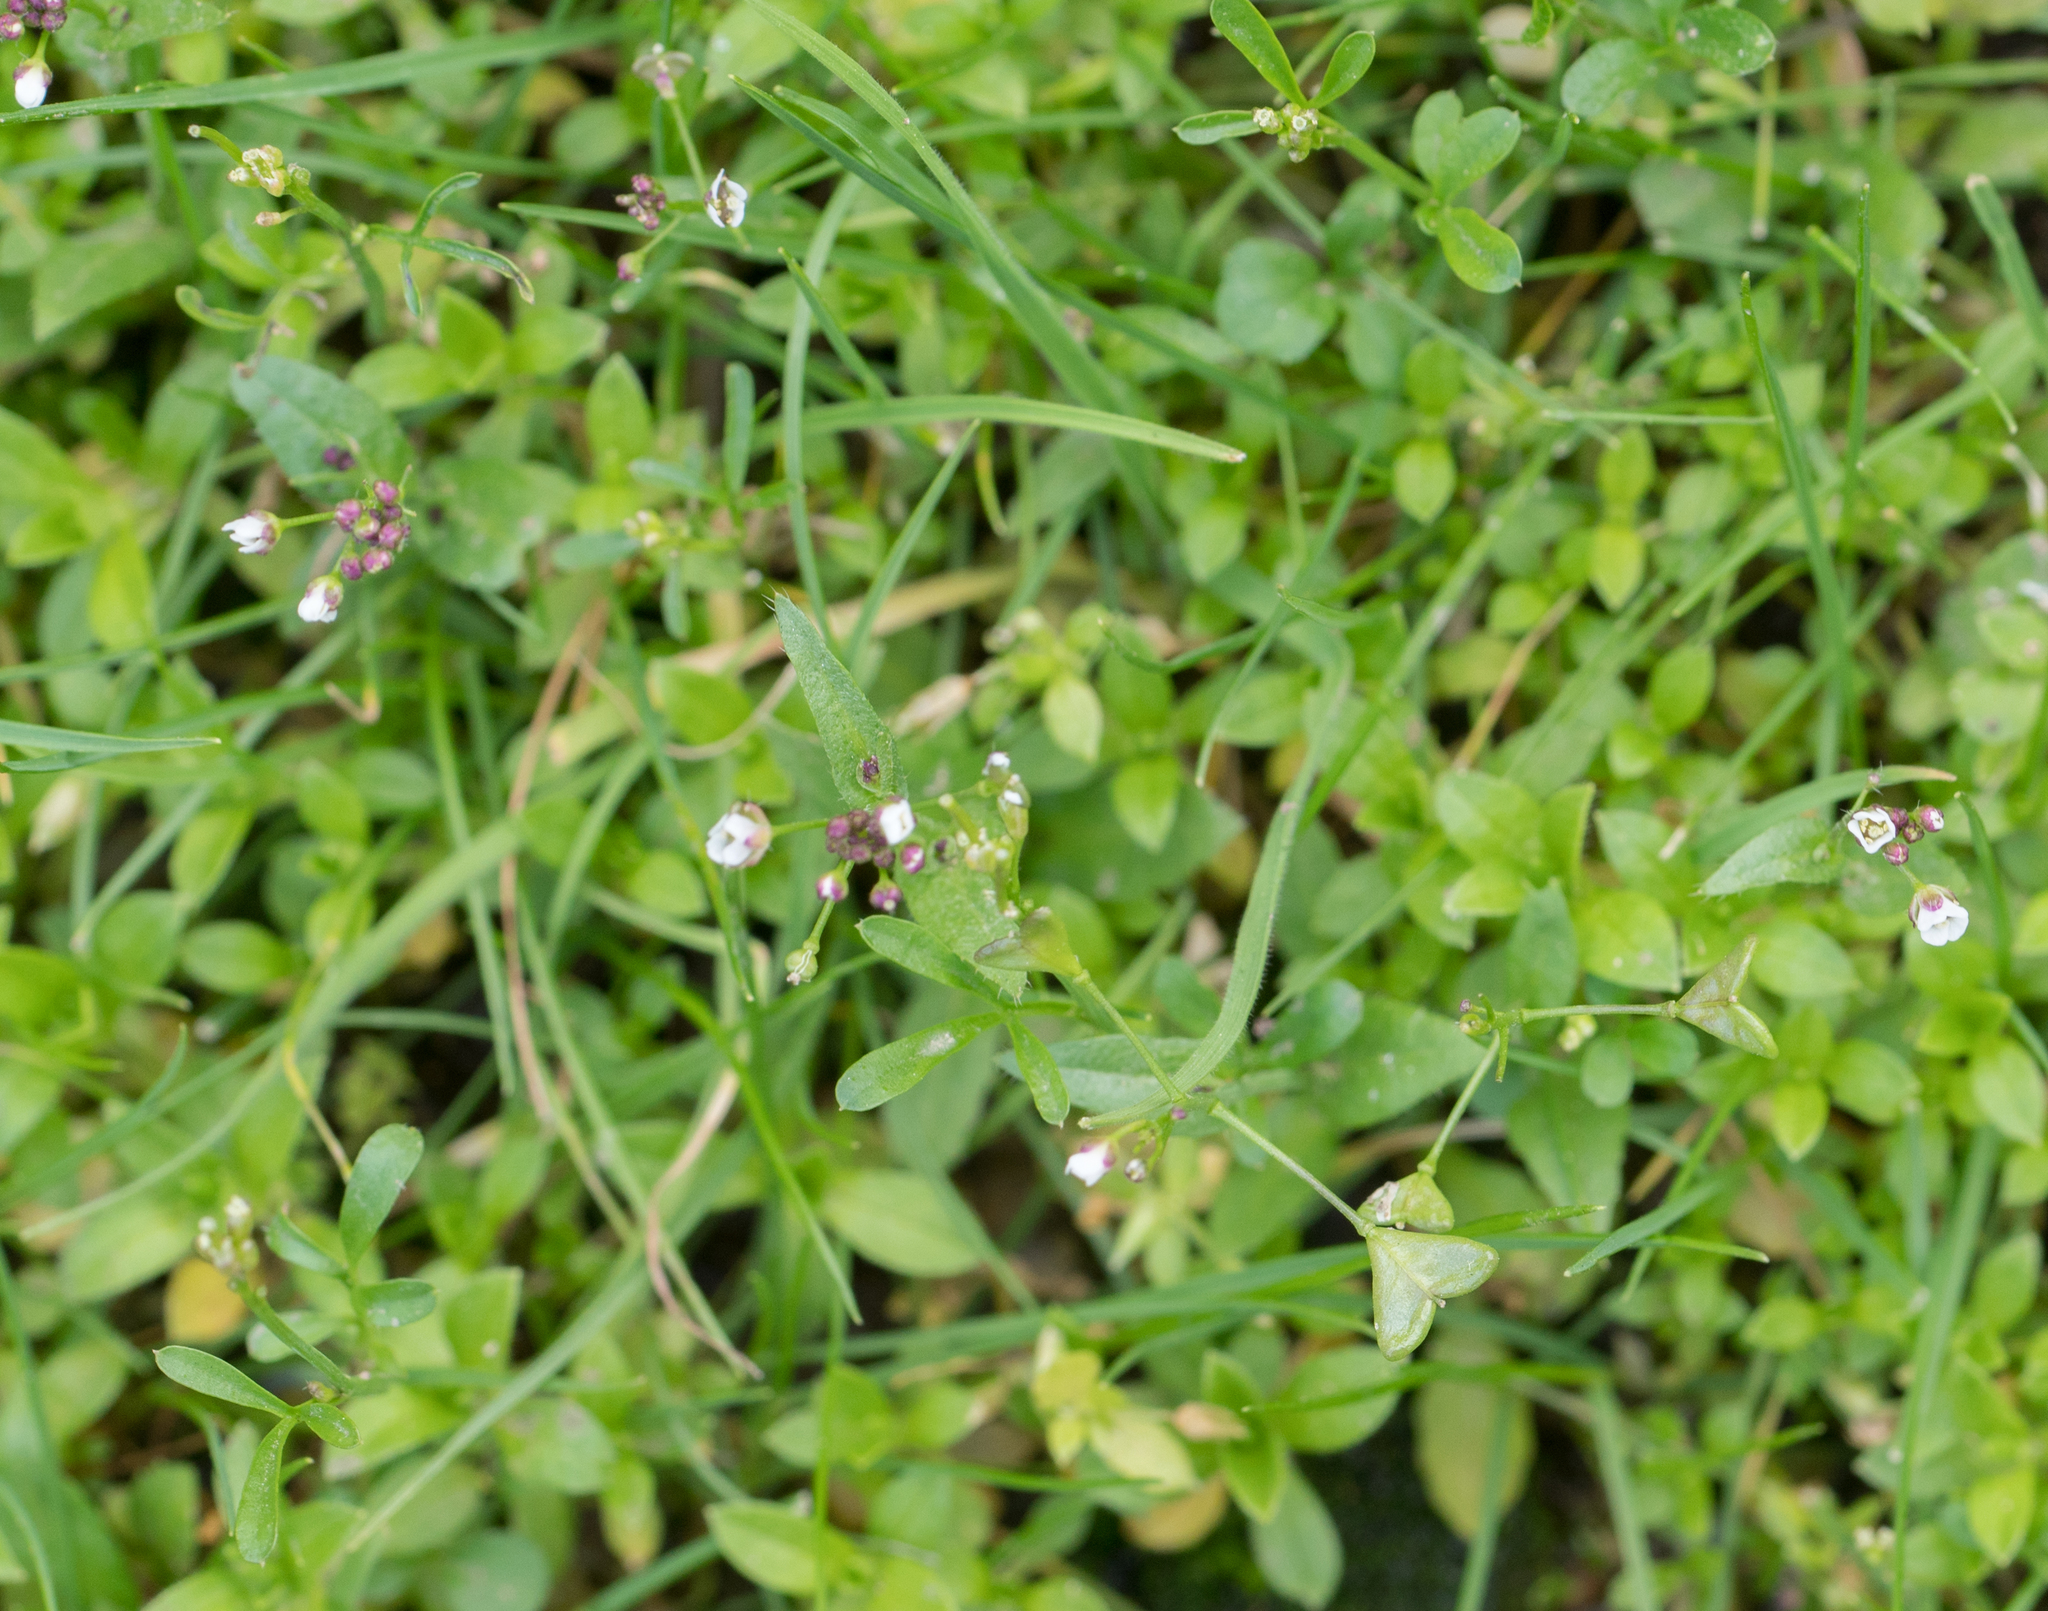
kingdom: Plantae
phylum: Tracheophyta
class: Magnoliopsida
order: Brassicales
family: Brassicaceae
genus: Capsella
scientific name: Capsella bursa-pastoris
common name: Shepherd's purse
